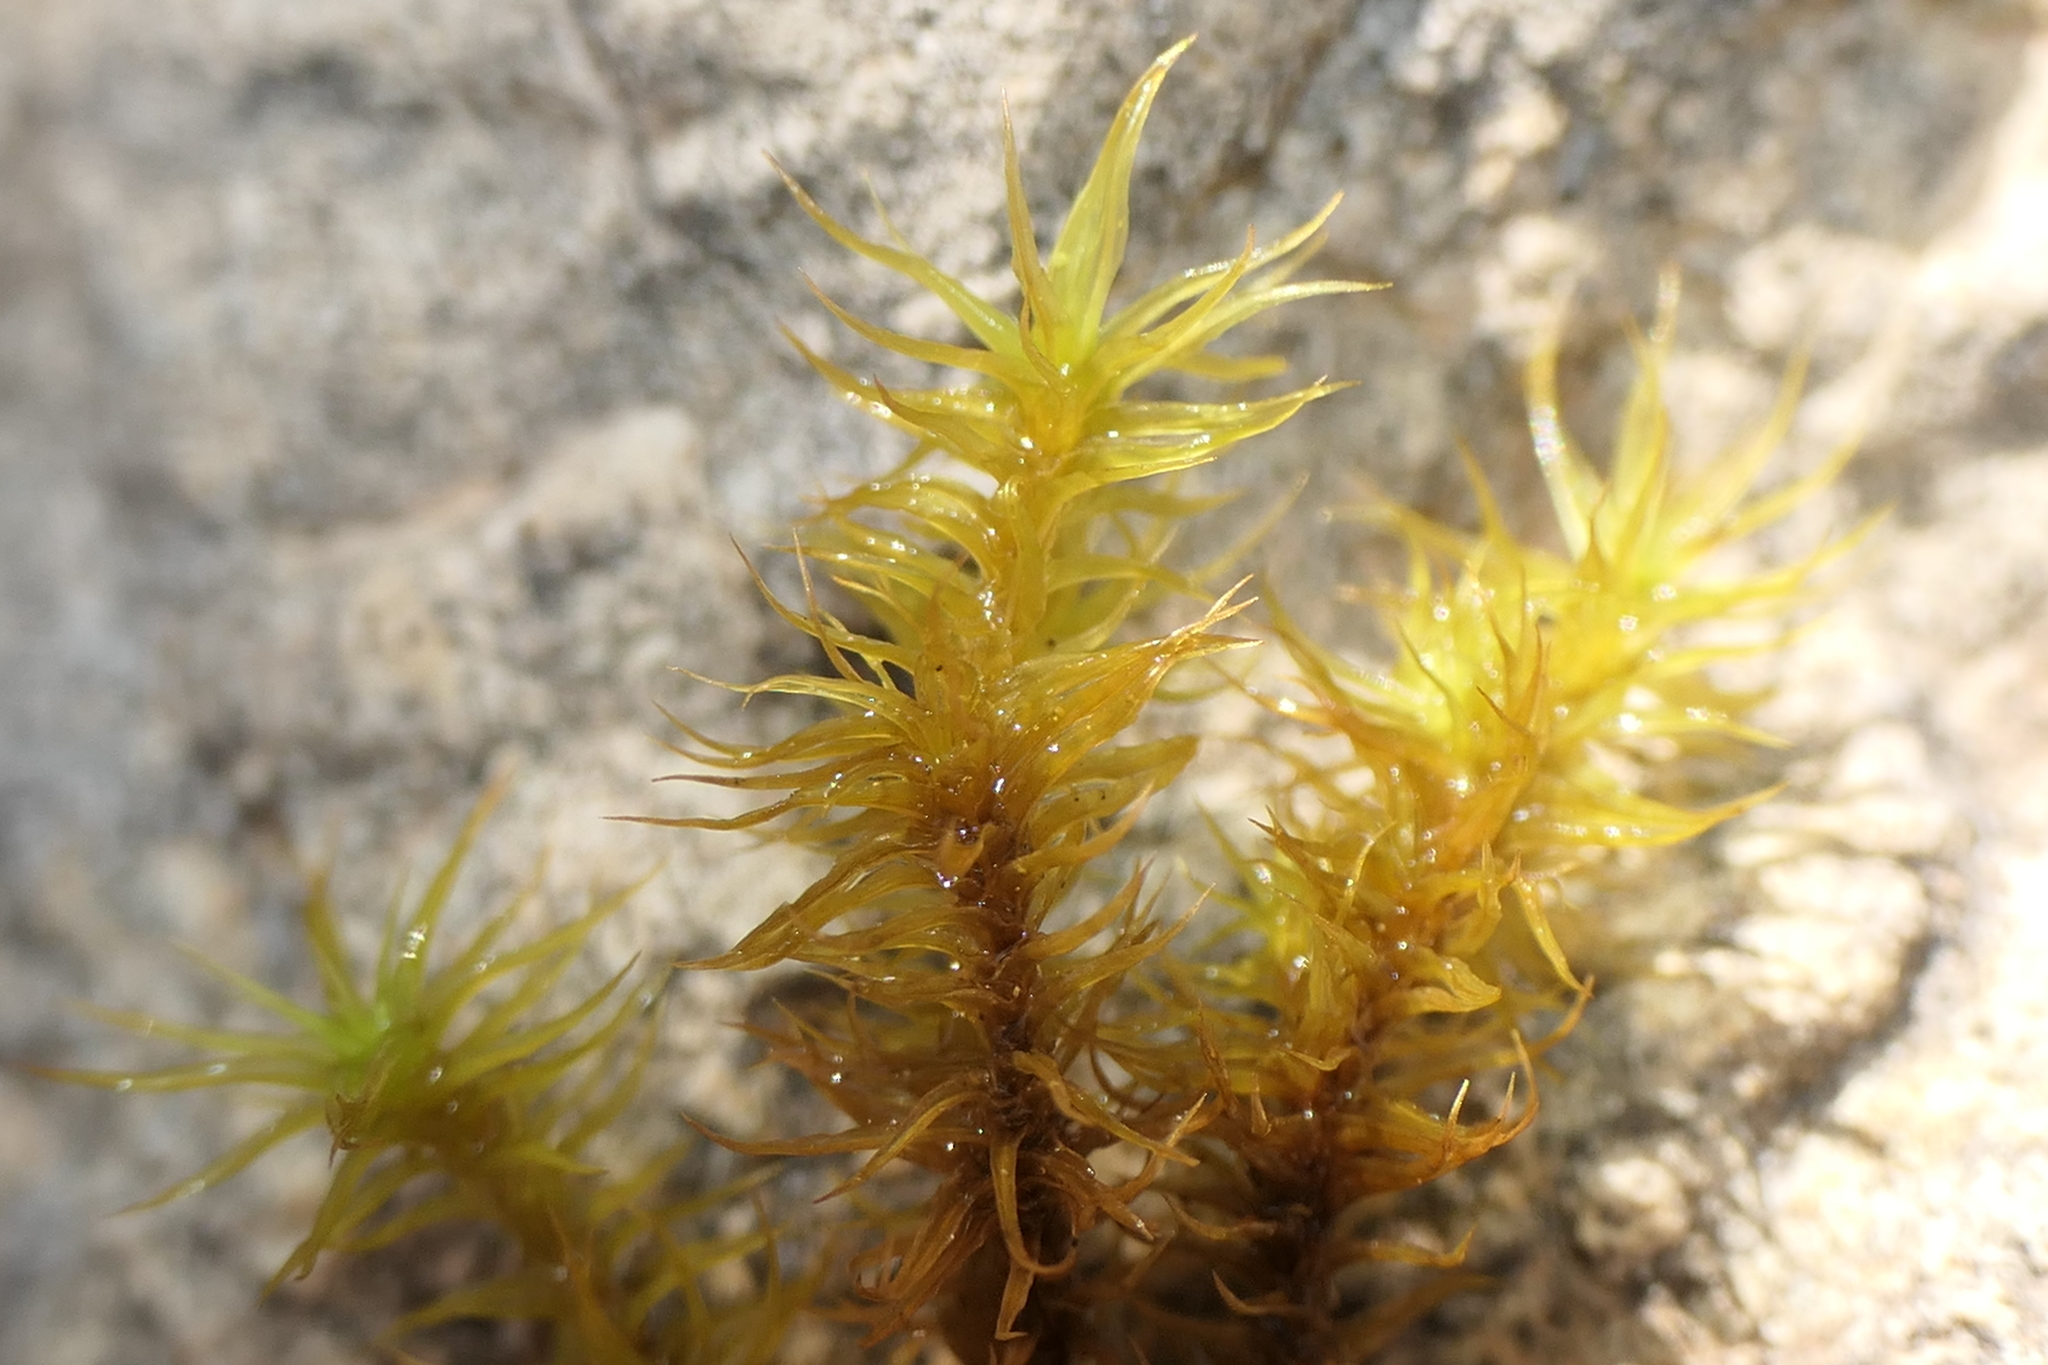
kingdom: Plantae
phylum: Bryophyta
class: Bryopsida
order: Pottiales
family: Pottiaceae
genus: Pleurochaete
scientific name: Pleurochaete squarrosa
